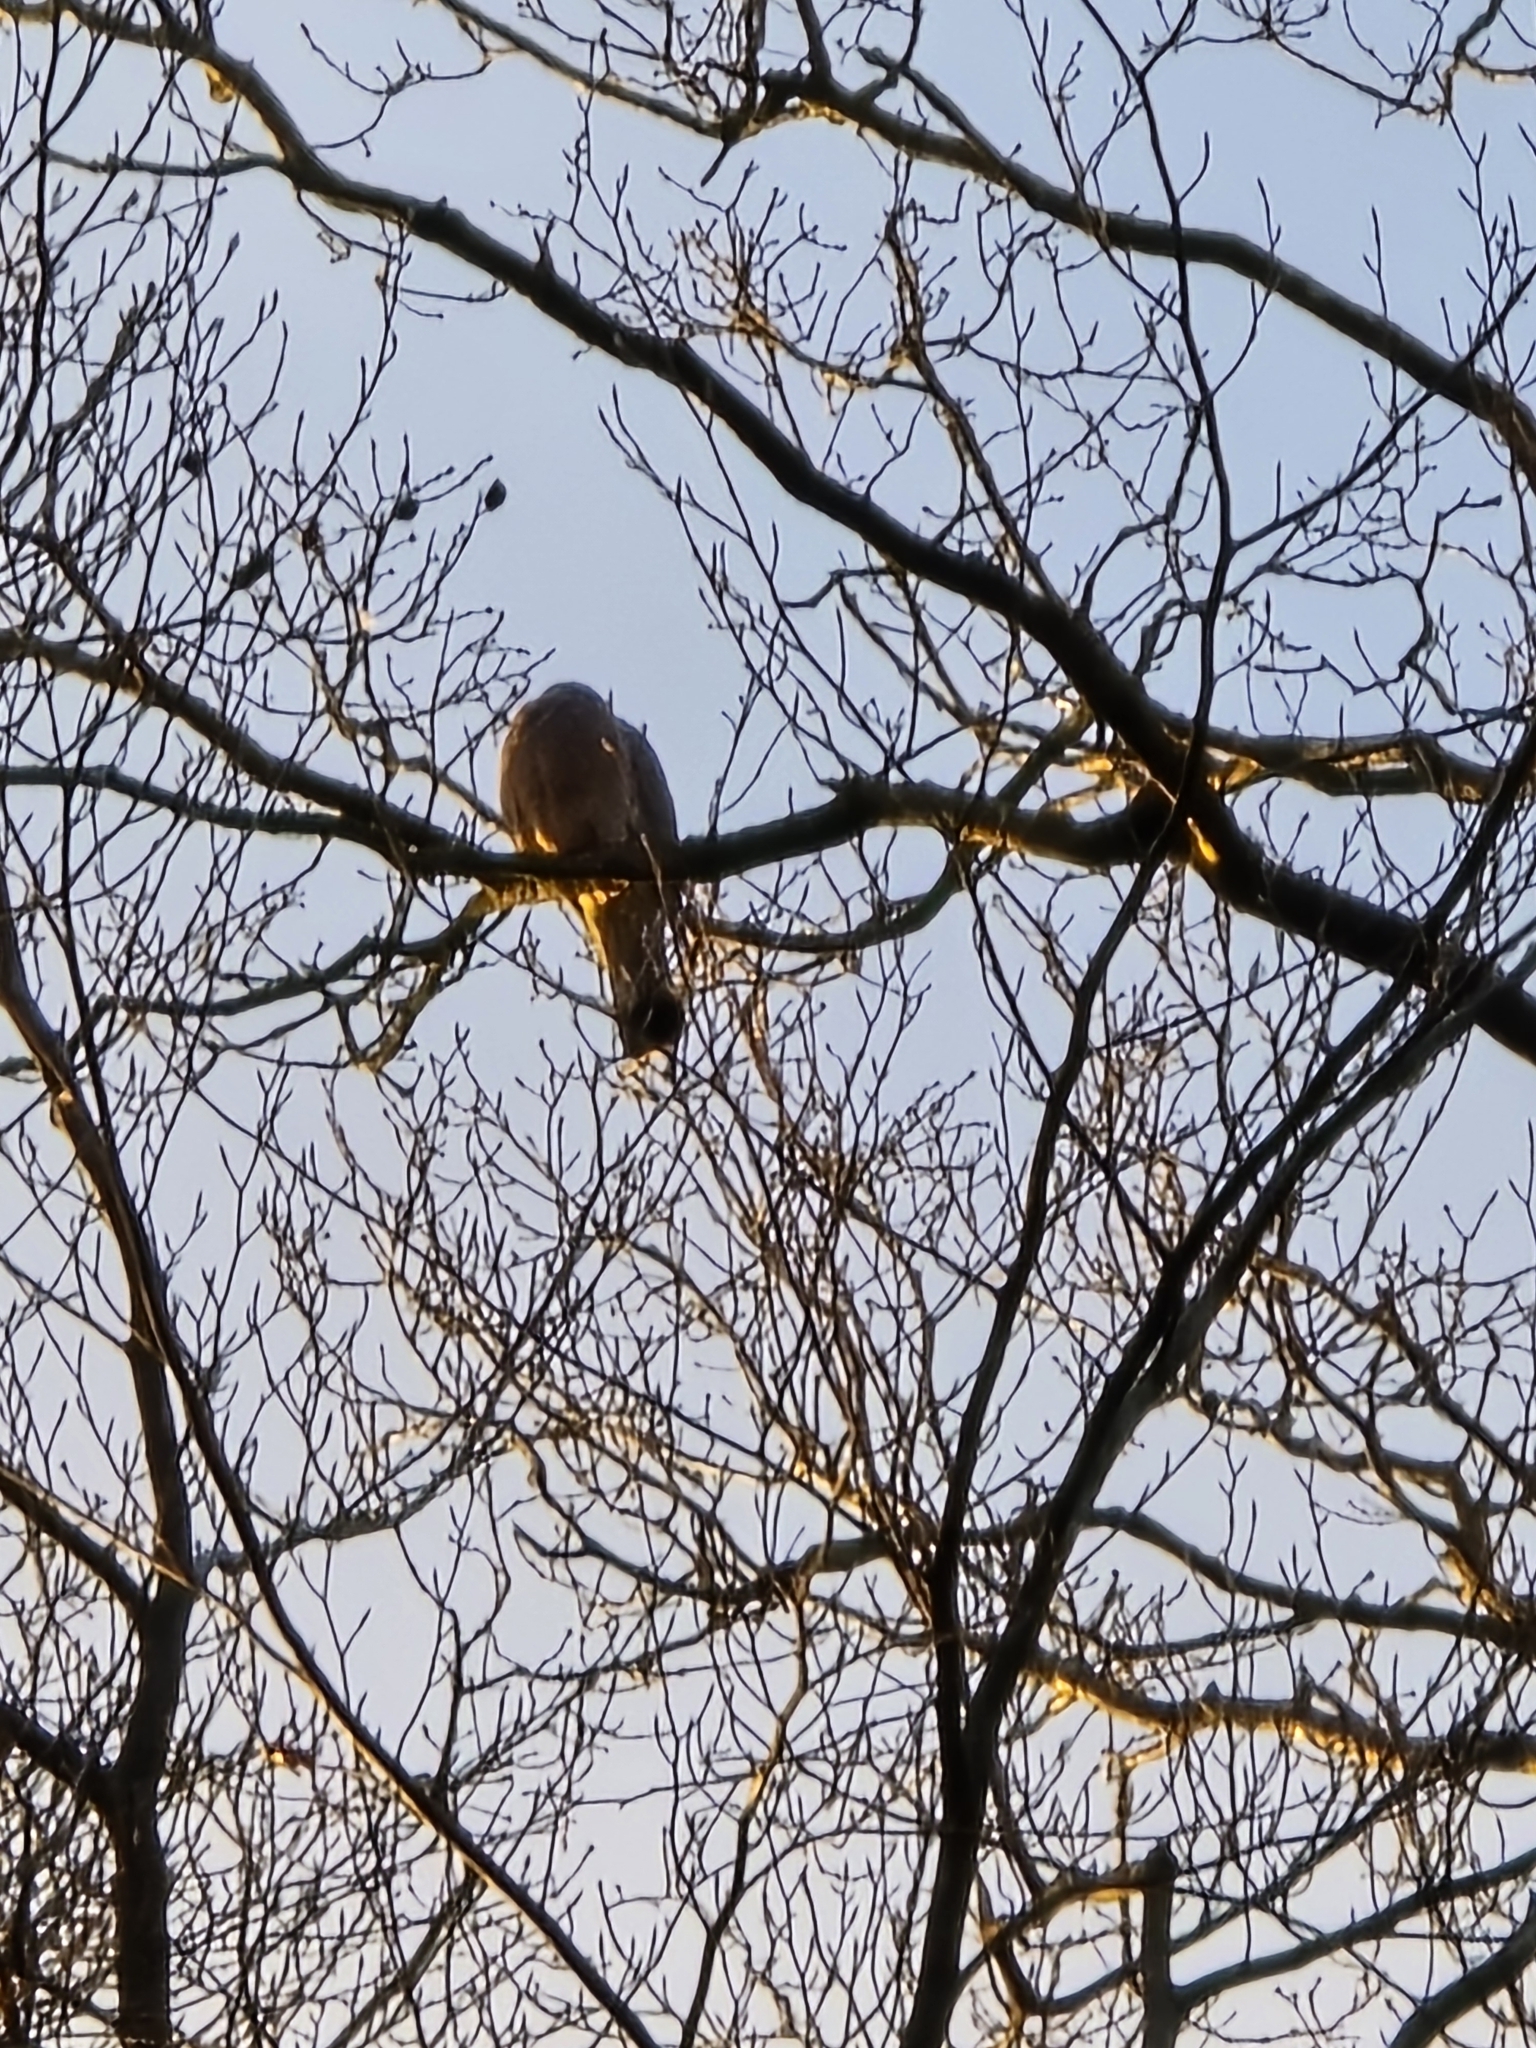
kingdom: Animalia
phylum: Chordata
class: Aves
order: Columbiformes
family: Columbidae
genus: Columba
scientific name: Columba palumbus
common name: Common wood pigeon
